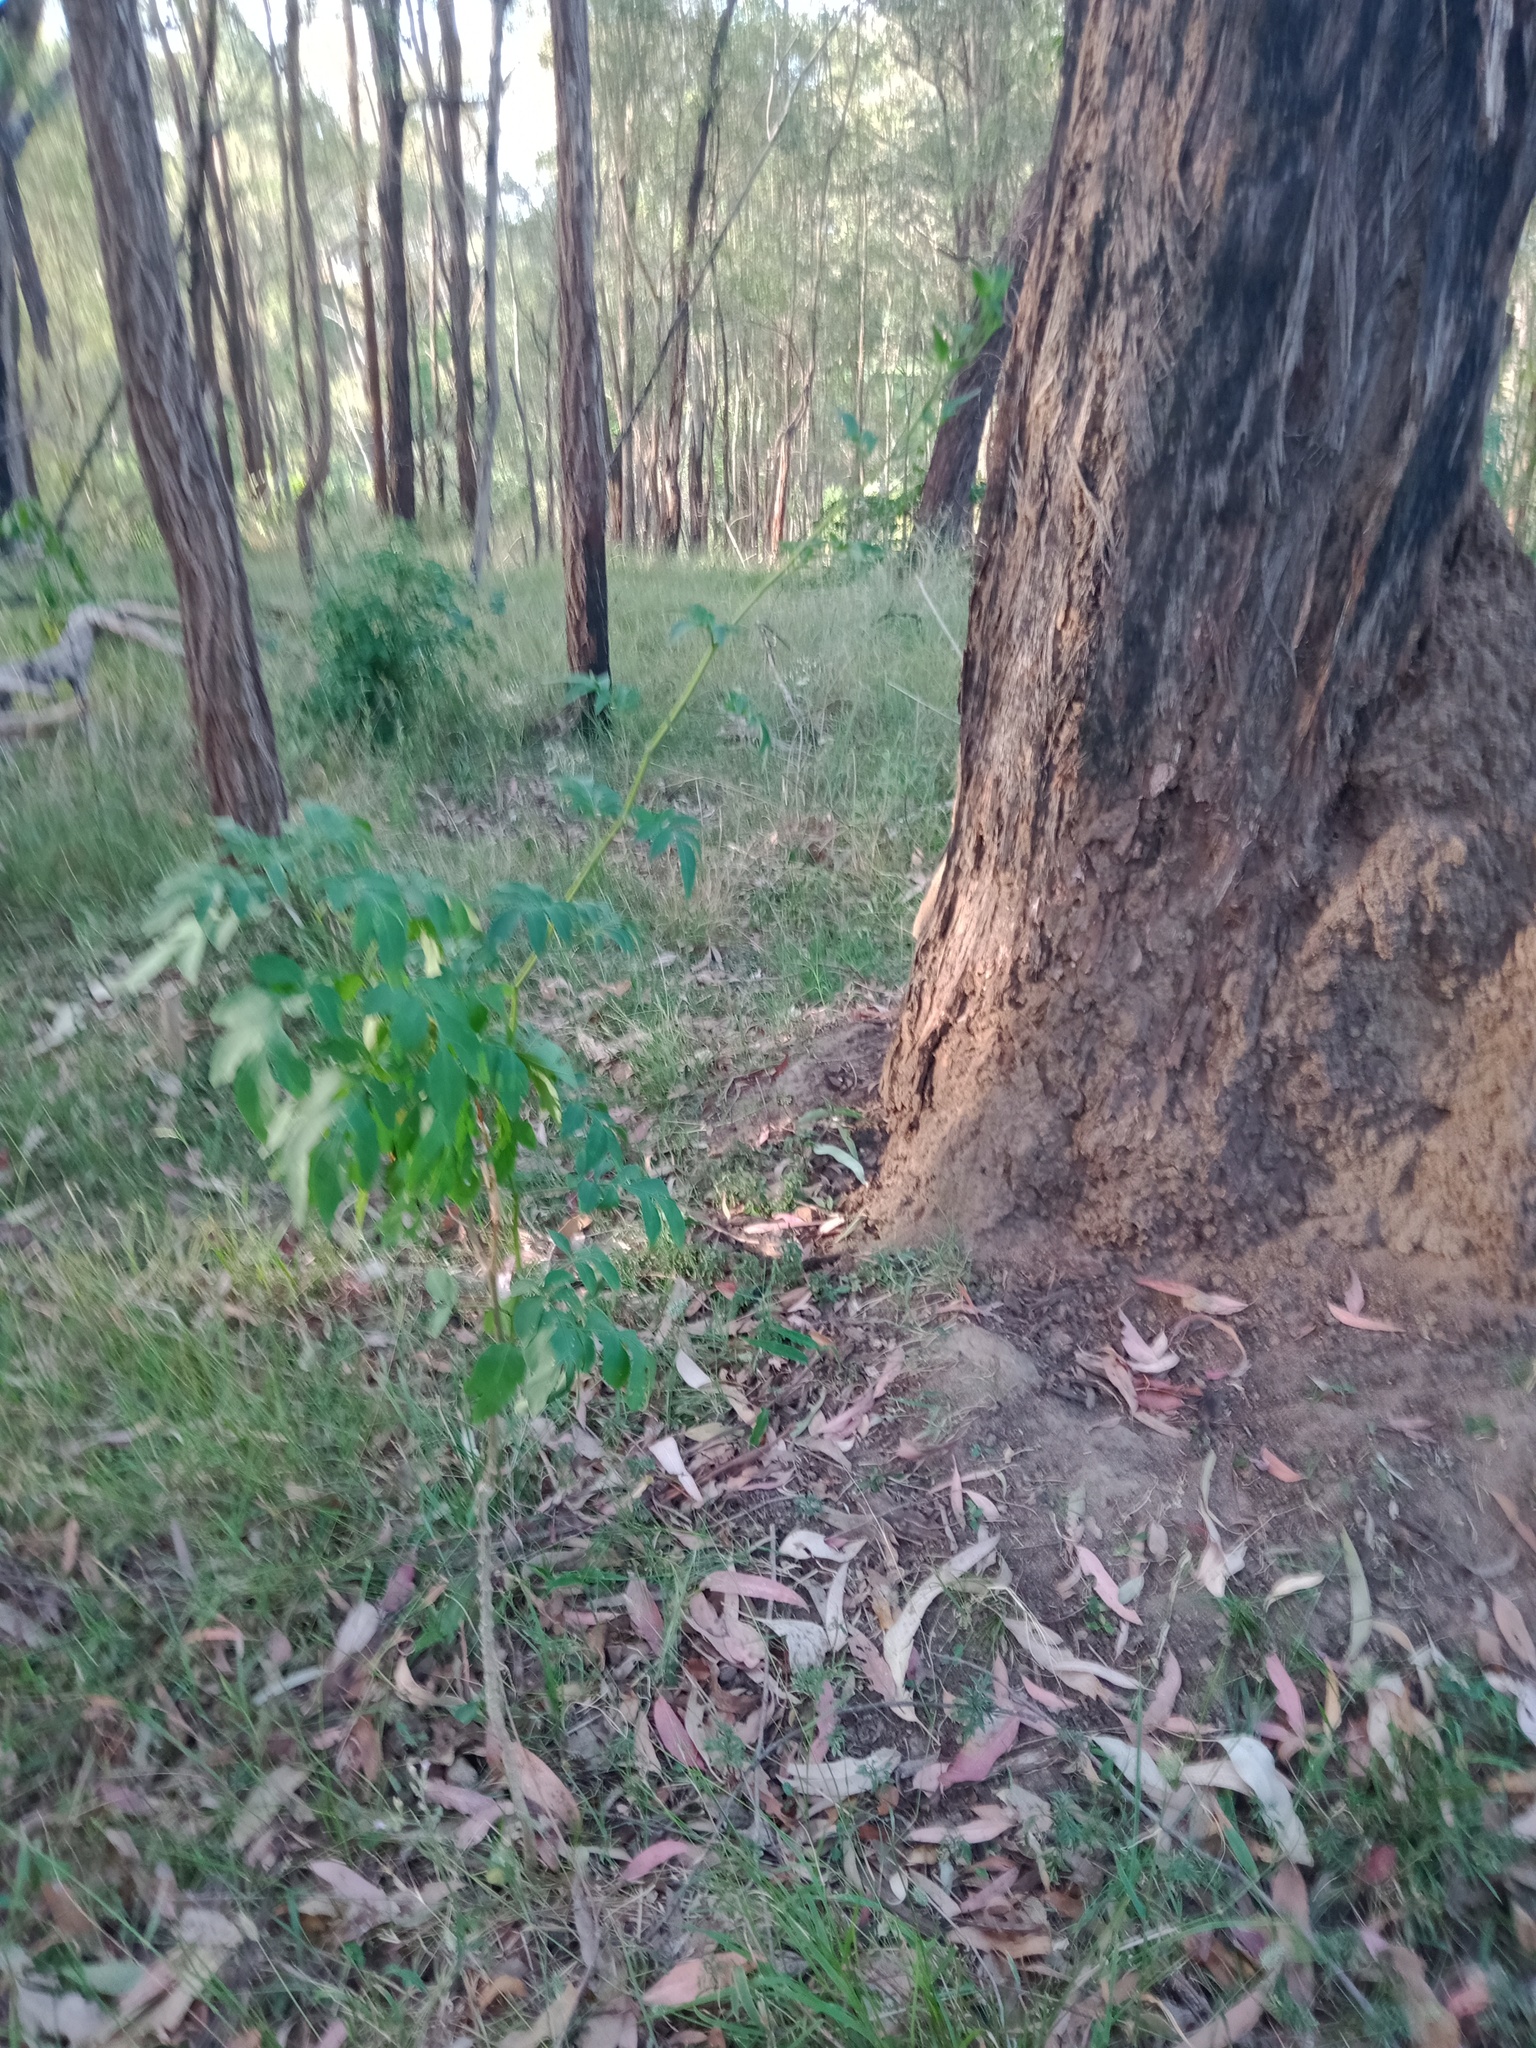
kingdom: Plantae
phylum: Tracheophyta
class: Magnoliopsida
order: Solanales
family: Solanaceae
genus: Solanum
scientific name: Solanum seaforthianum
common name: Brazilian nightshade
